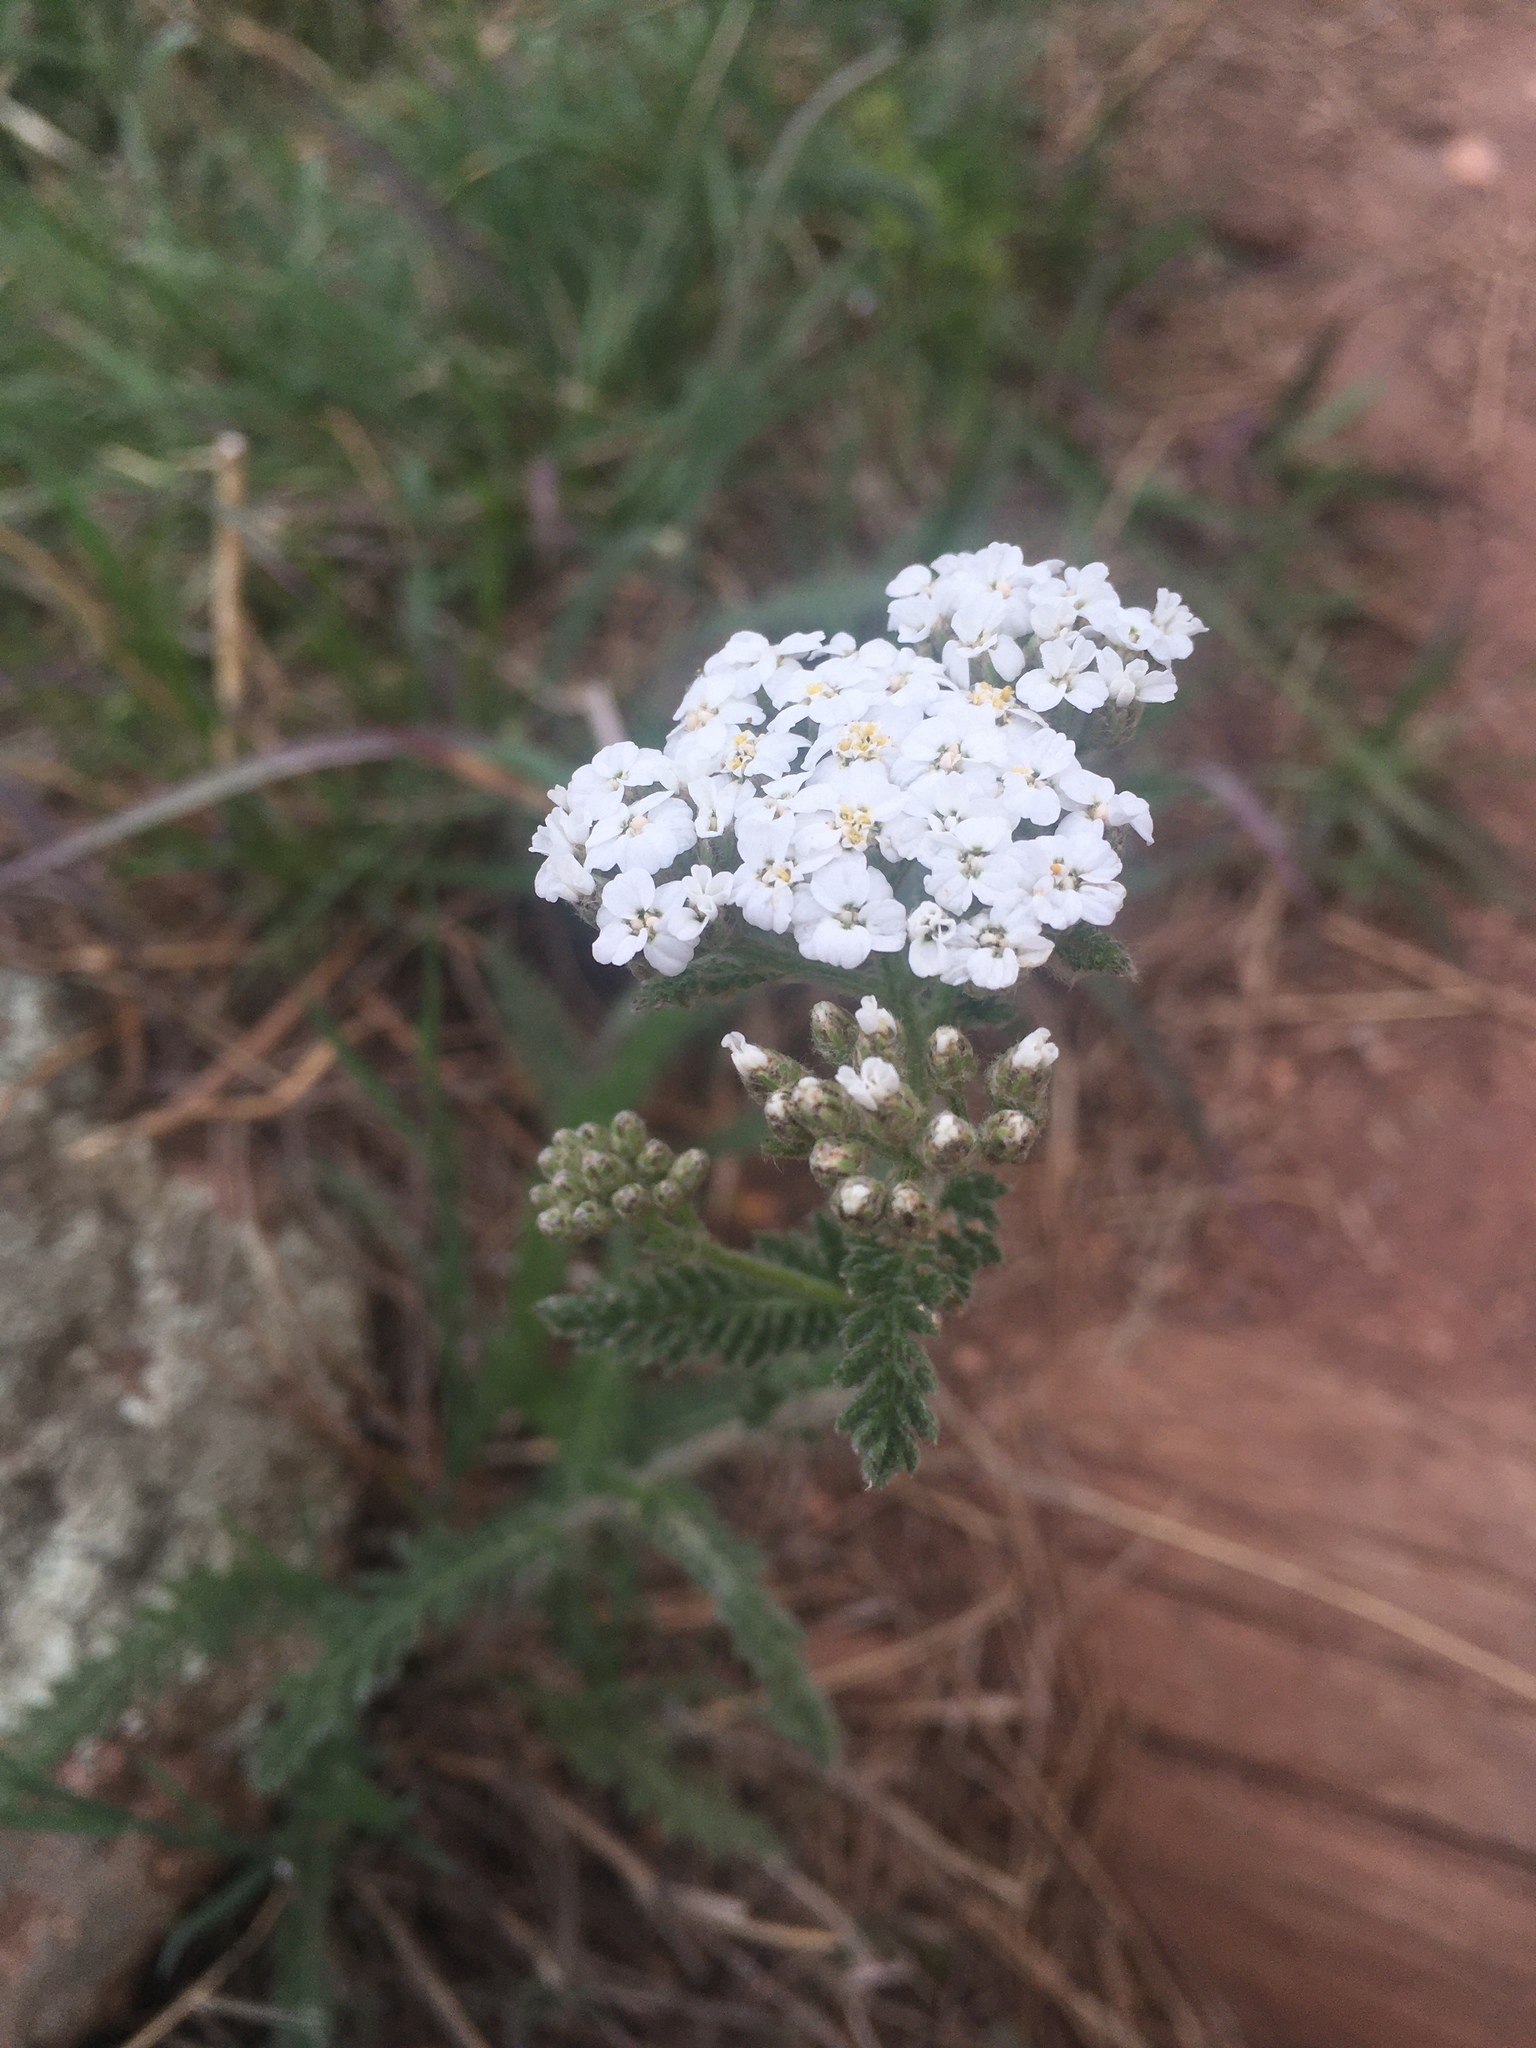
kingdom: Plantae
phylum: Tracheophyta
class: Magnoliopsida
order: Asterales
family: Asteraceae
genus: Achillea
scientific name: Achillea millefolium
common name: Yarrow
